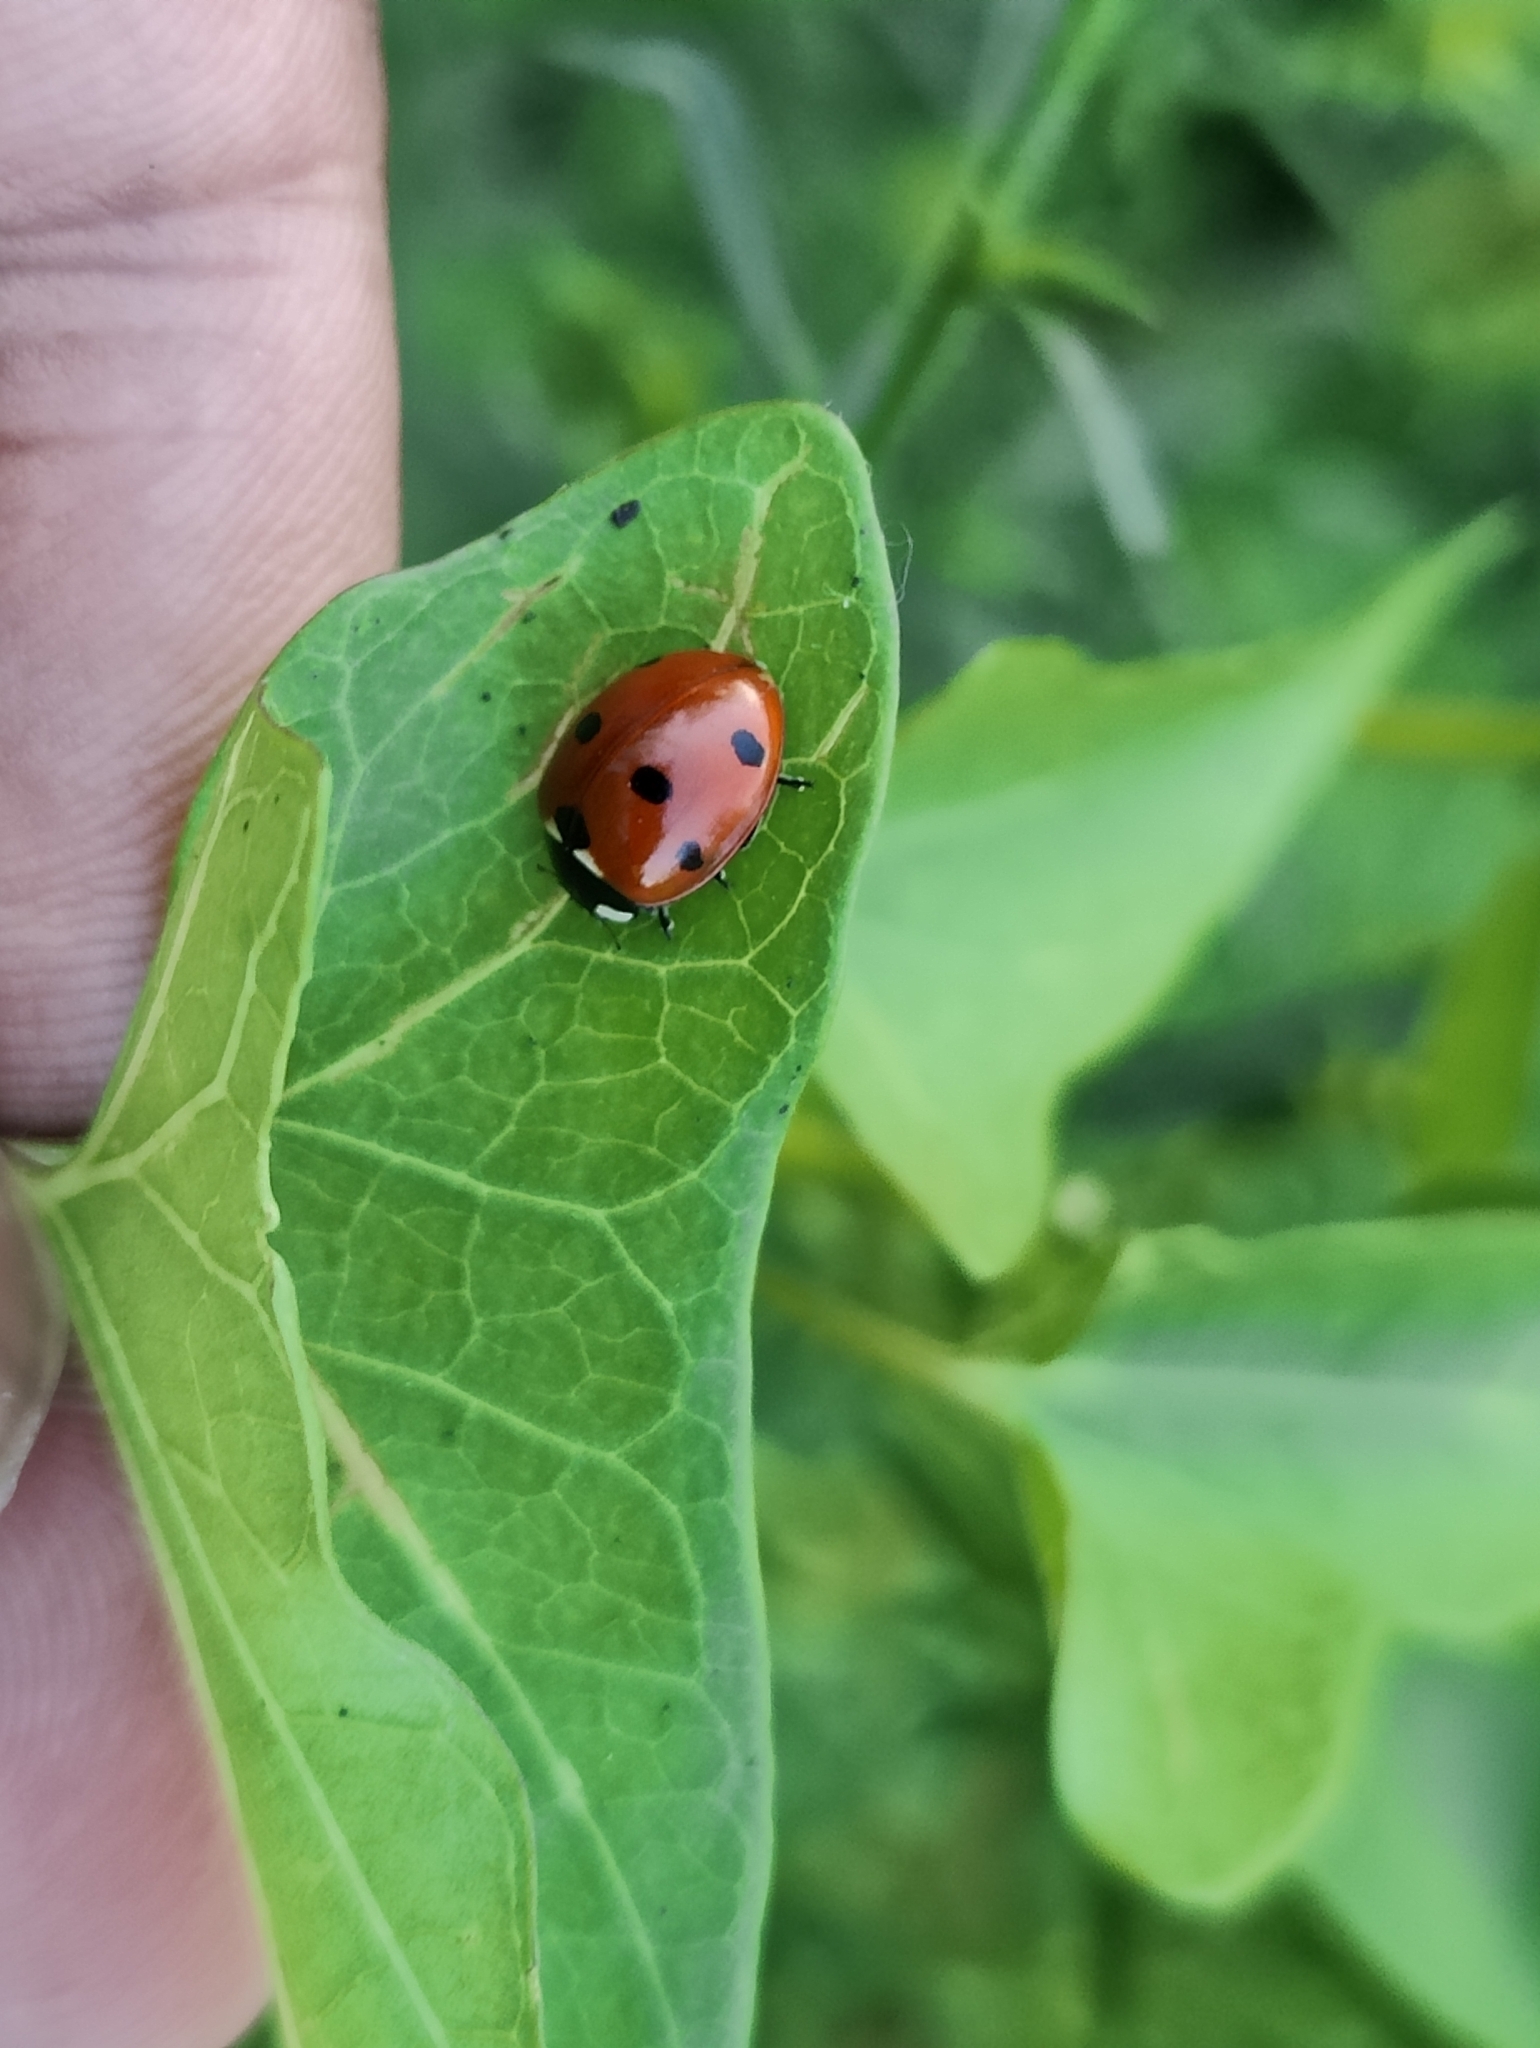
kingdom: Animalia
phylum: Arthropoda
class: Insecta
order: Coleoptera
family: Coccinellidae
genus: Coccinella
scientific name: Coccinella septempunctata
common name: Sevenspotted lady beetle
